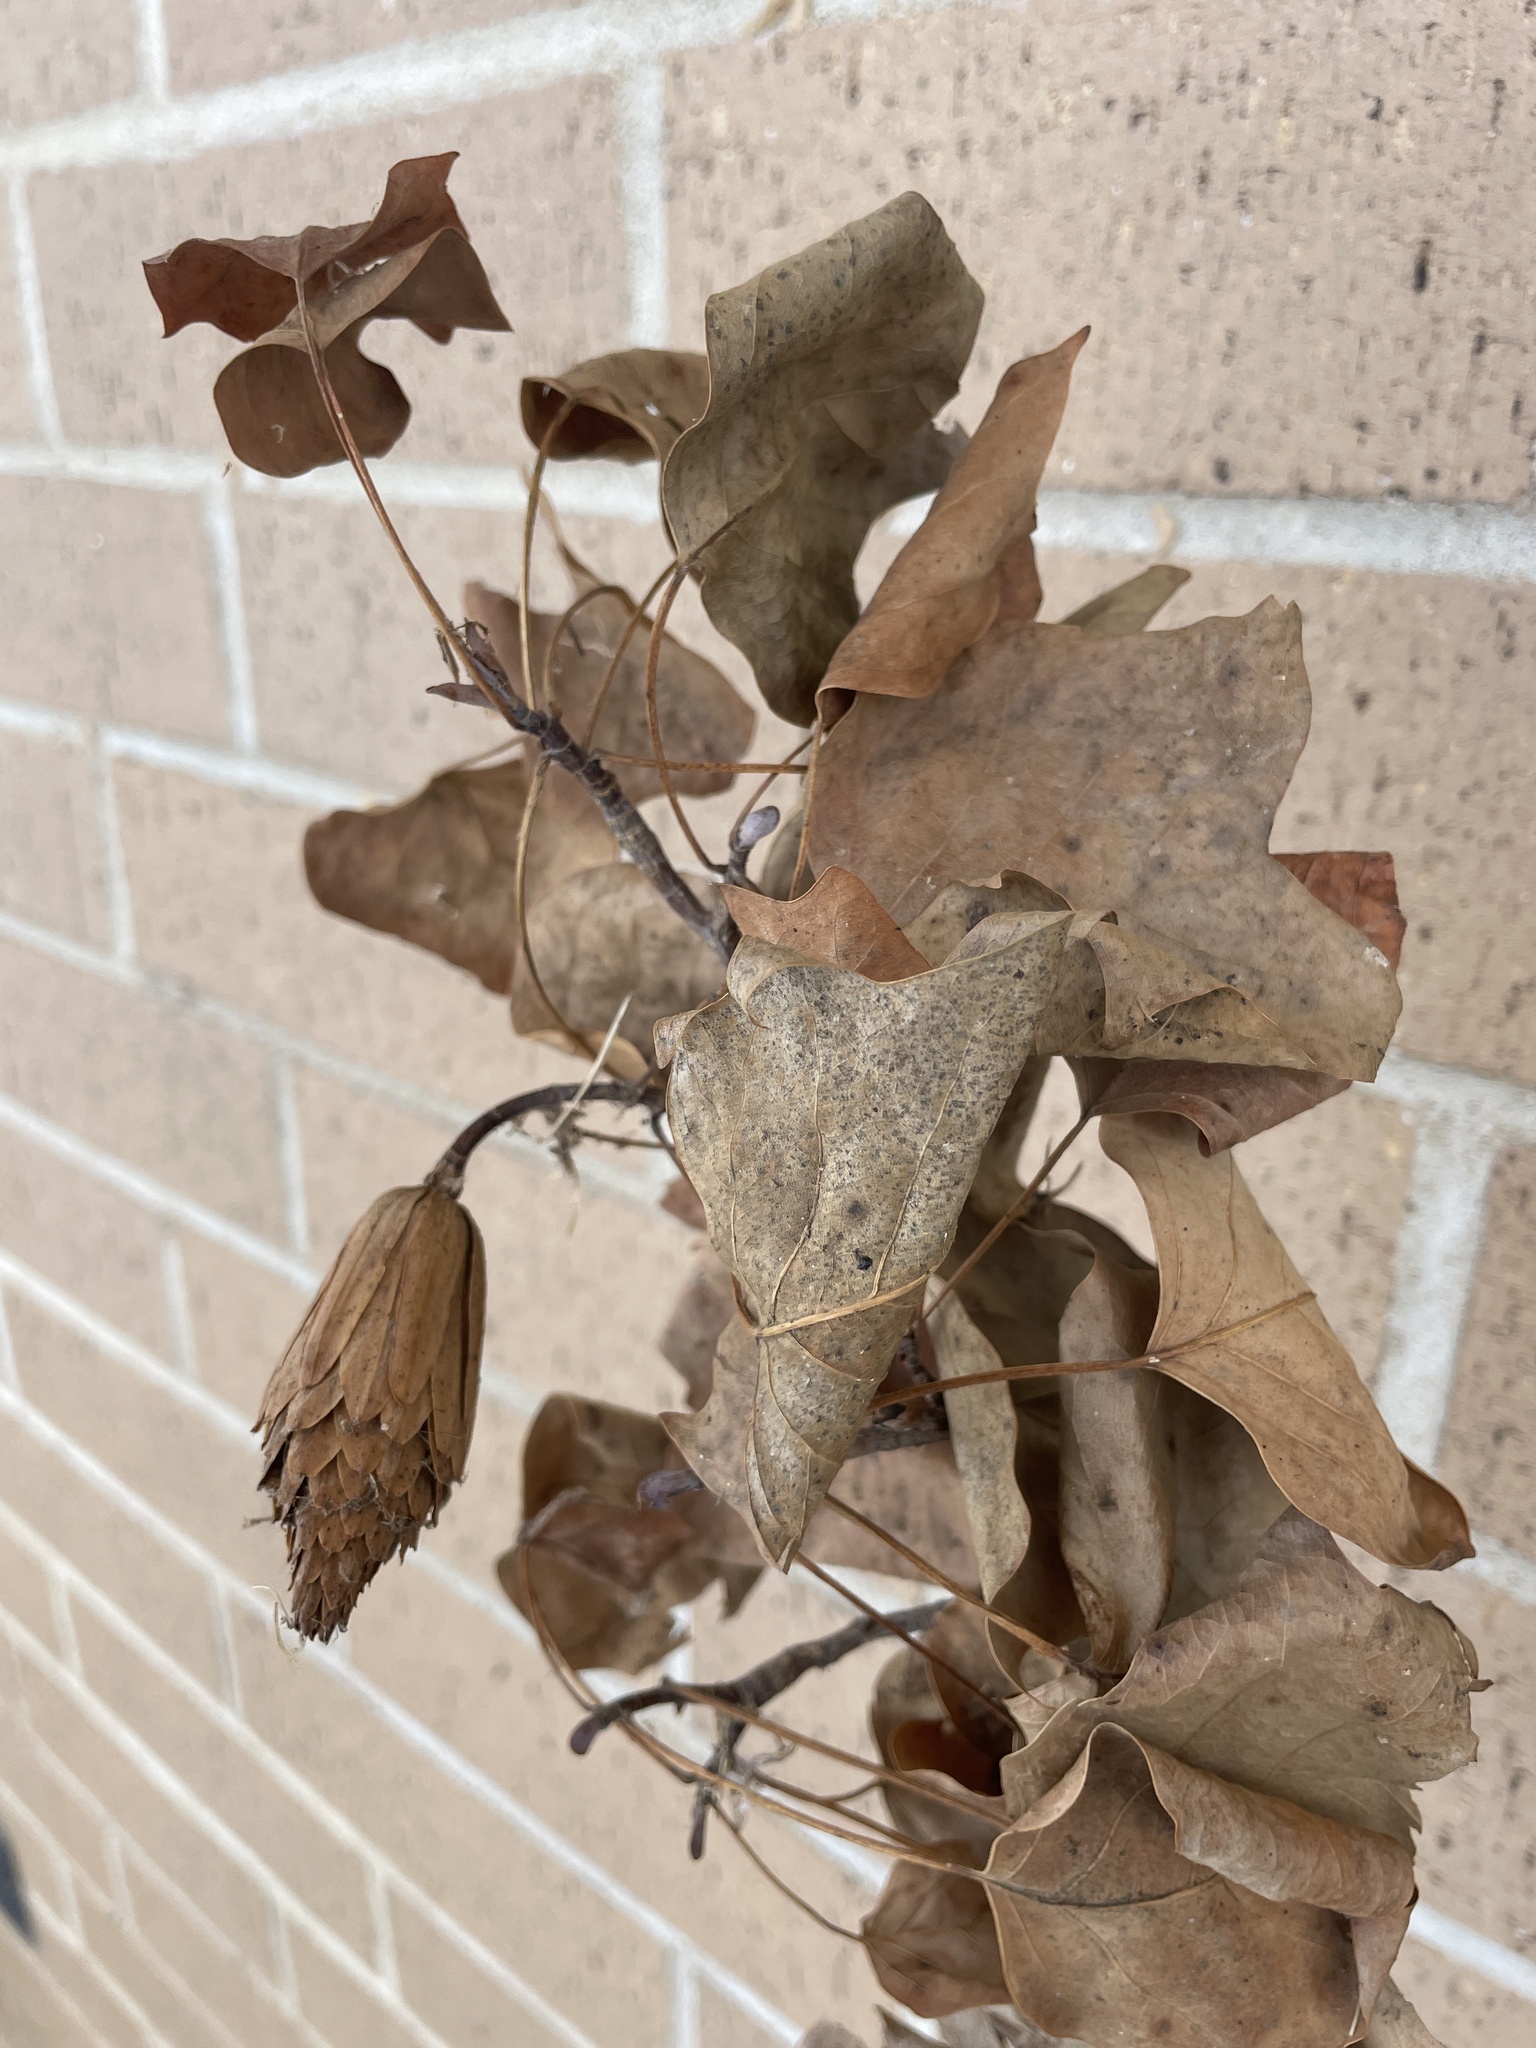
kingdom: Plantae
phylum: Tracheophyta
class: Magnoliopsida
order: Magnoliales
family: Magnoliaceae
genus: Liriodendron
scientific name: Liriodendron tulipifera
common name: Tulip tree
